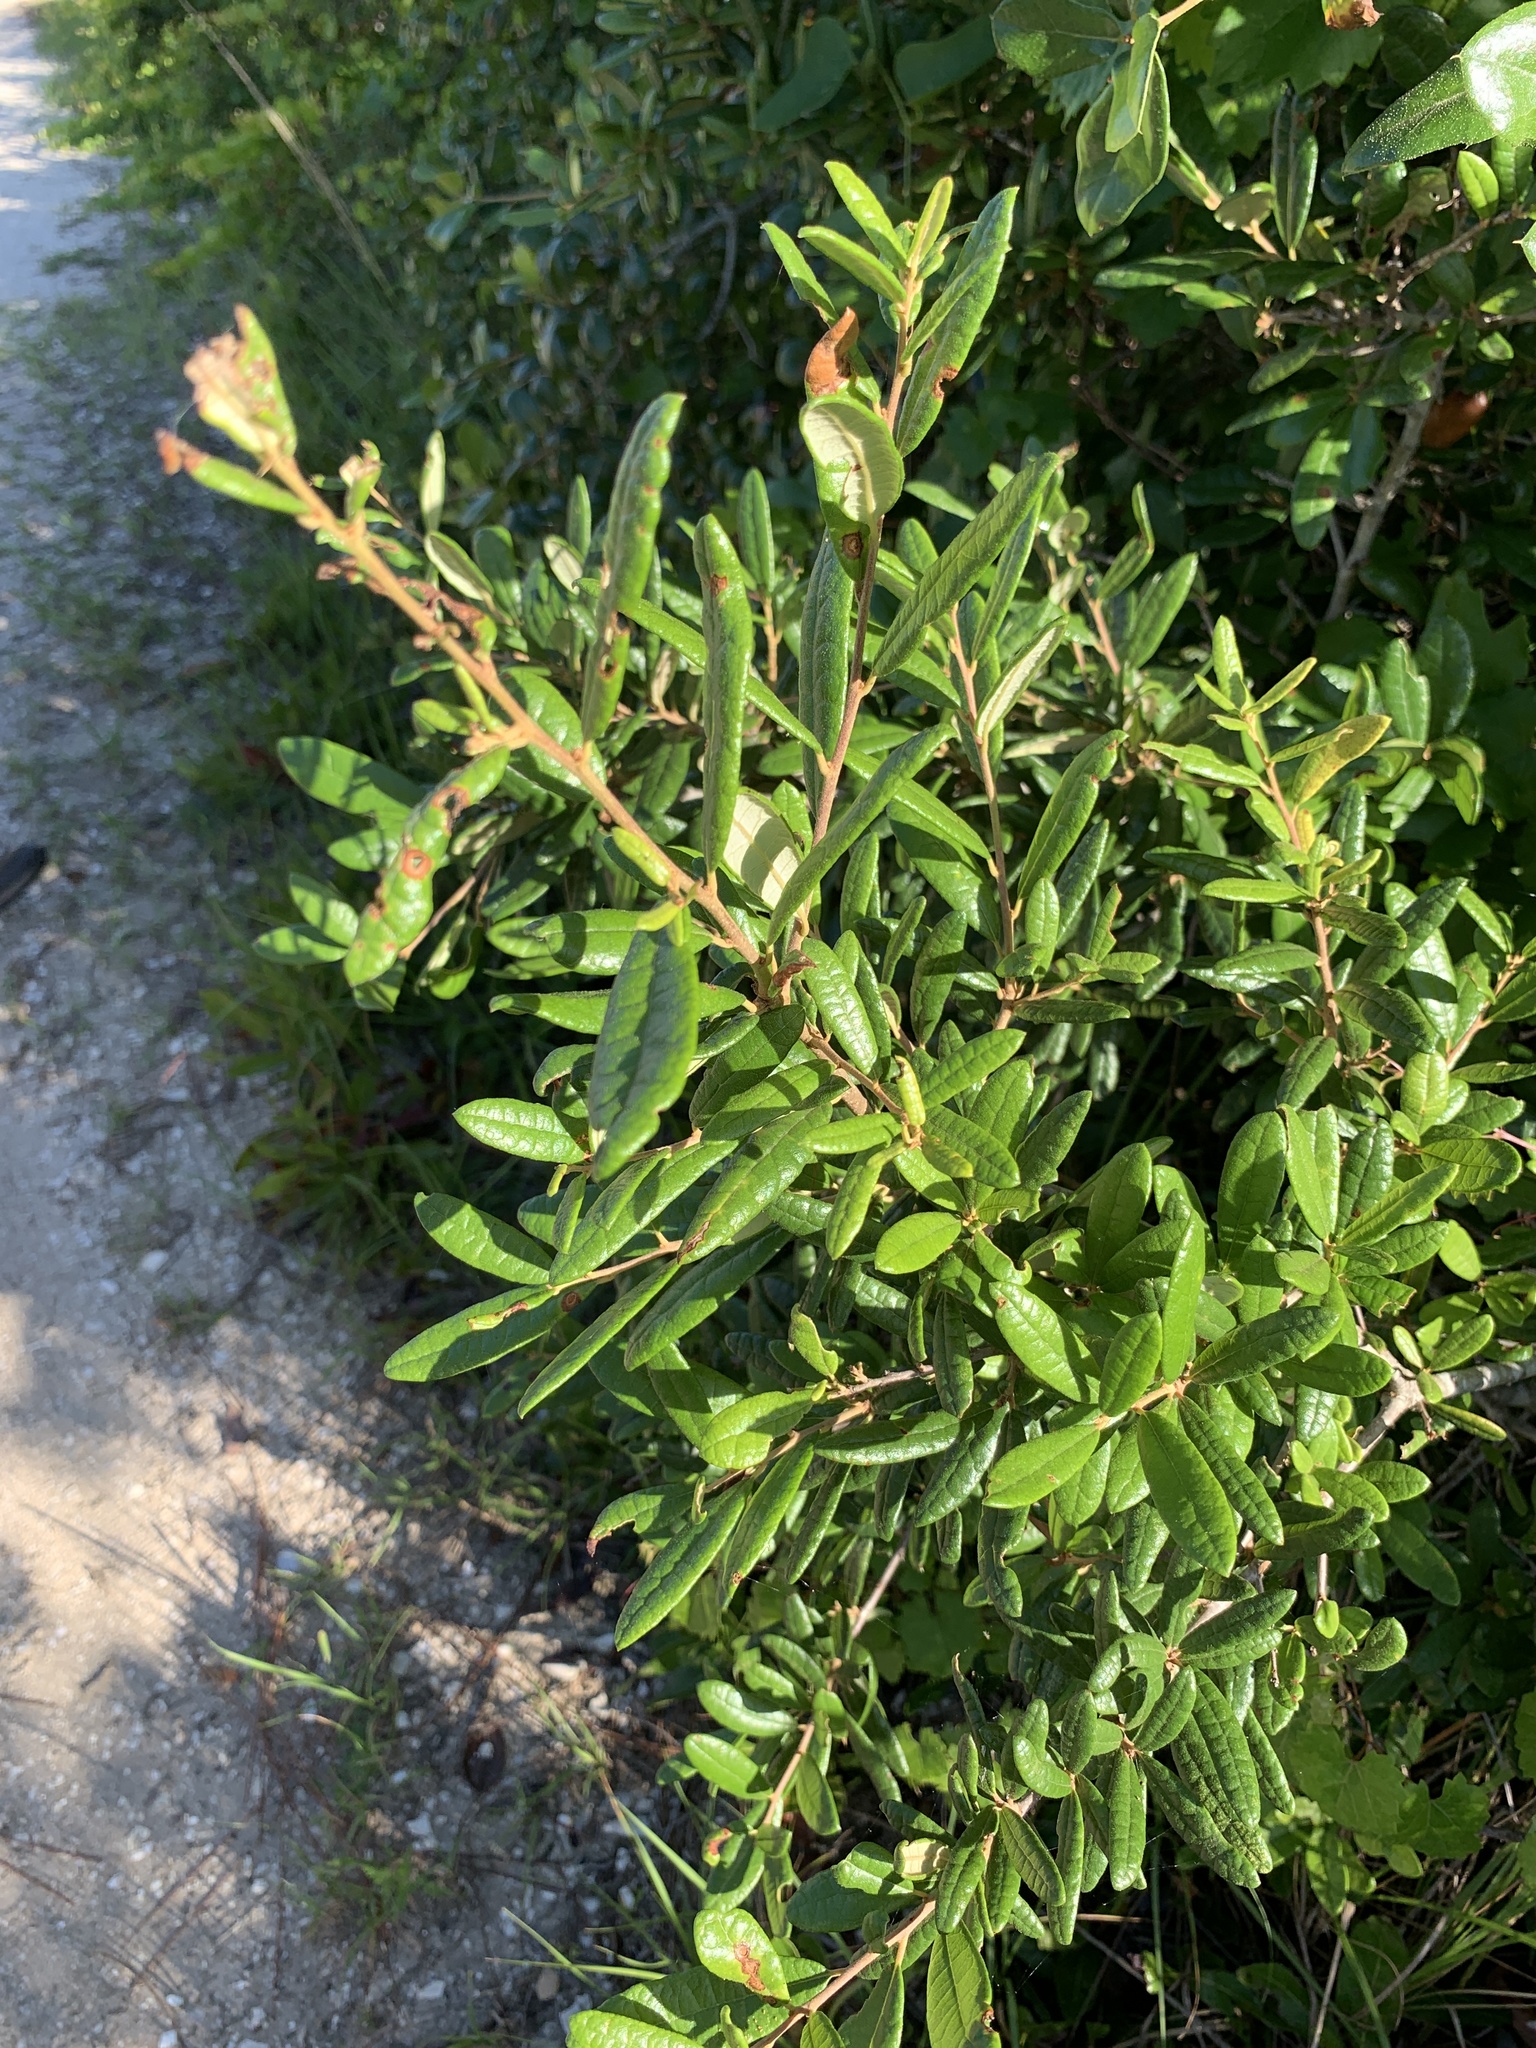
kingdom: Plantae
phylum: Tracheophyta
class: Magnoliopsida
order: Fagales
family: Fagaceae
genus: Quercus
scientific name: Quercus geminata
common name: Sand live oak
